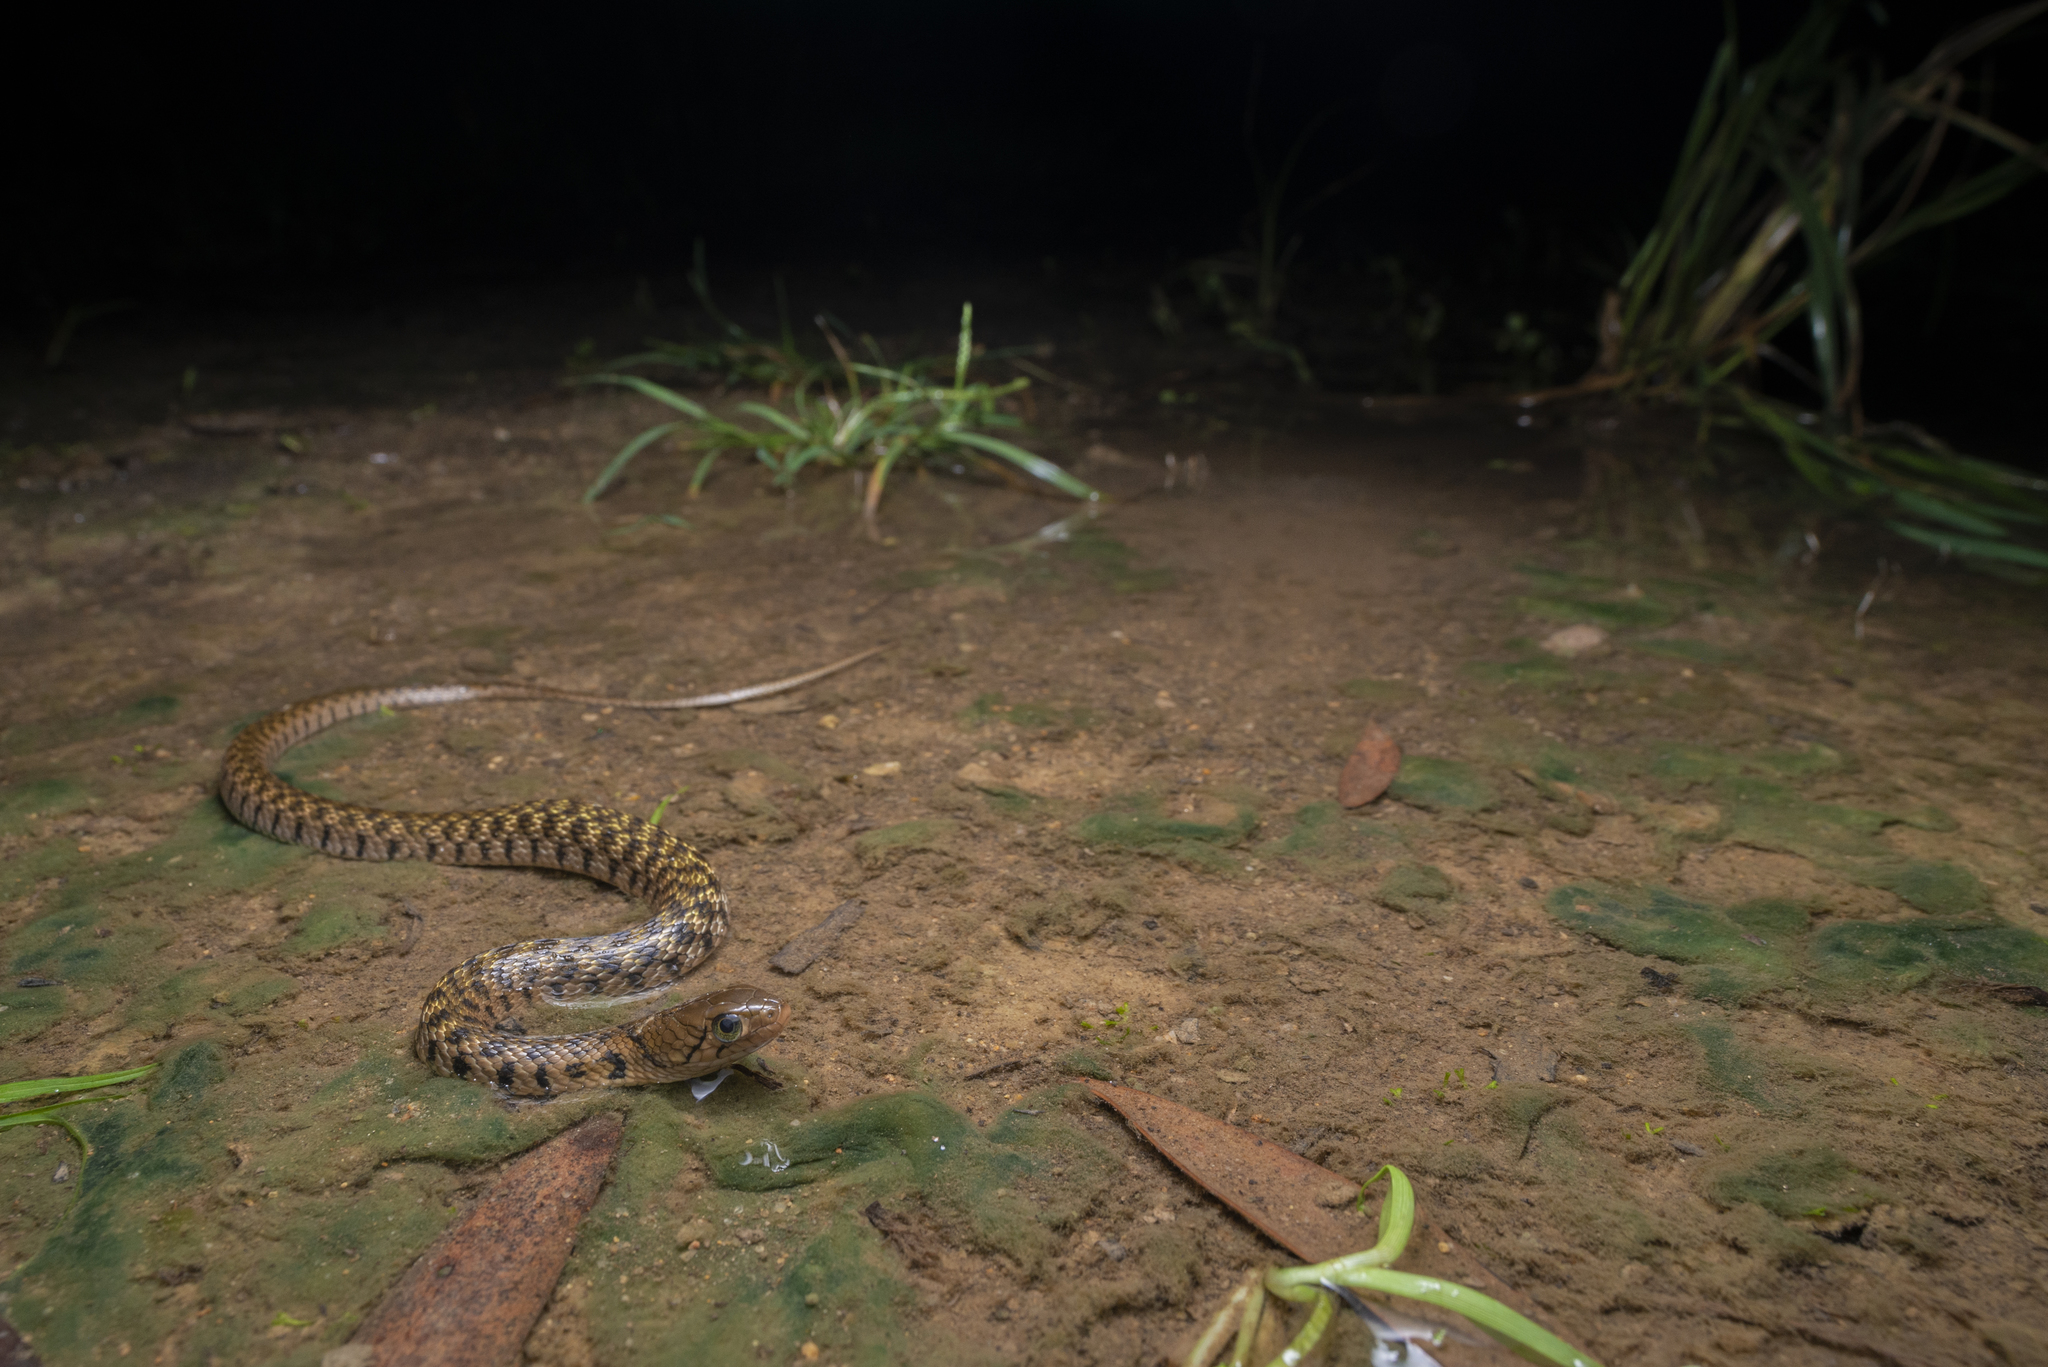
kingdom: Animalia
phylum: Chordata
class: Squamata
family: Colubridae
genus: Fowlea
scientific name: Fowlea flavipunctatus
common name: Yellow-spotted keelback
